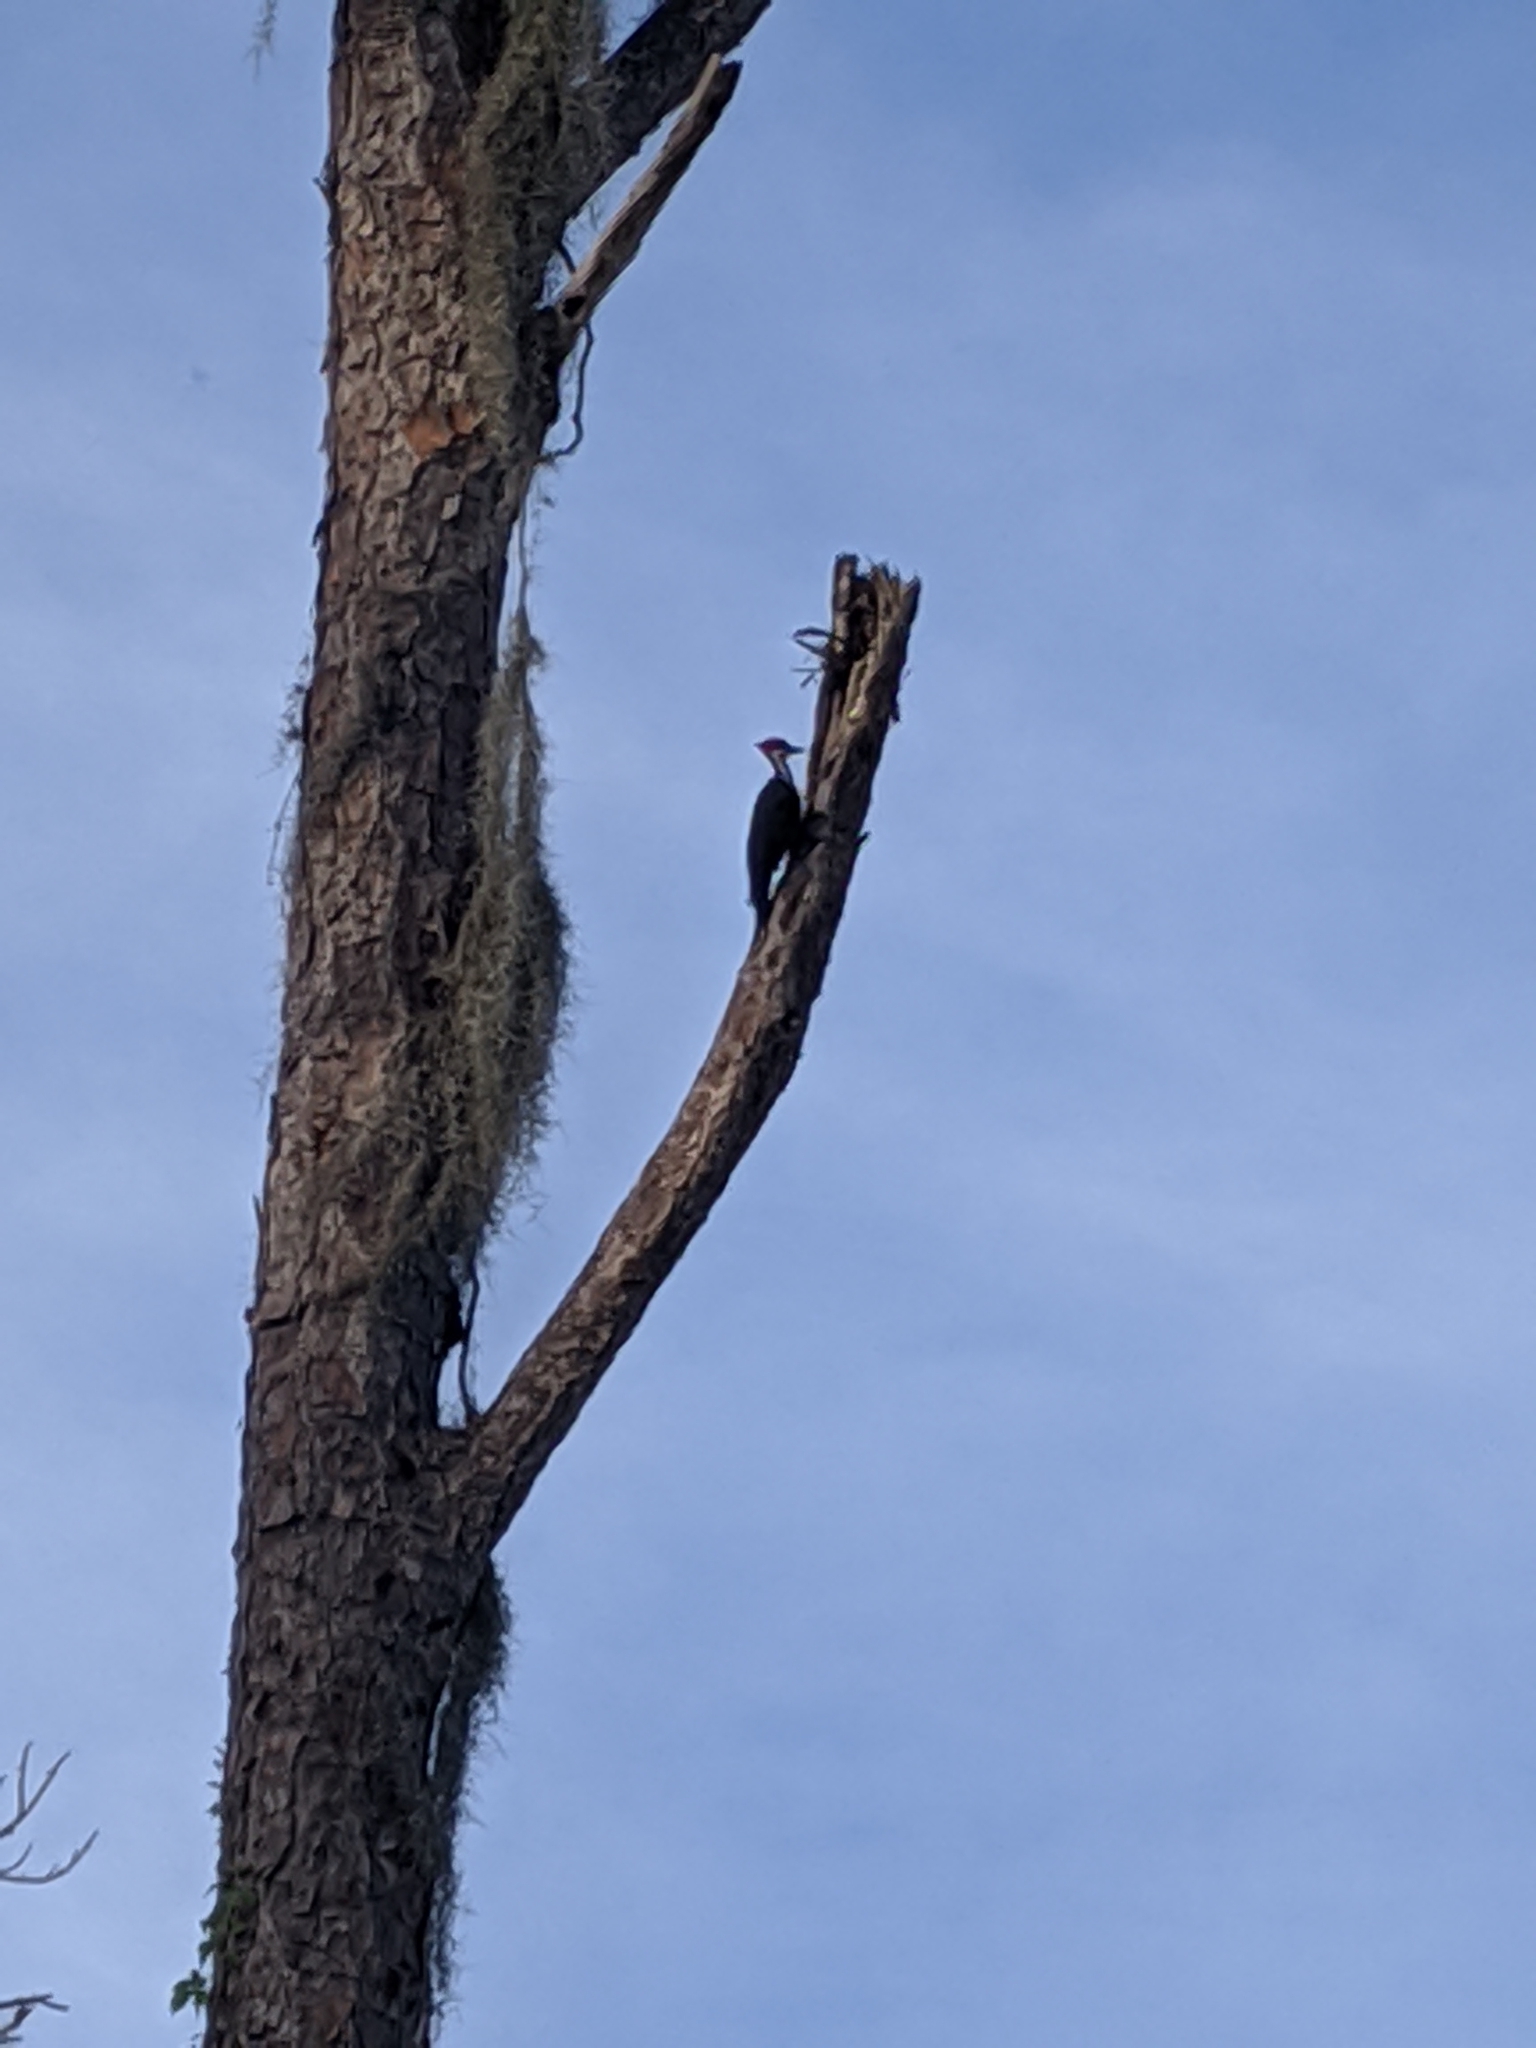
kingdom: Animalia
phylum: Chordata
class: Aves
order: Piciformes
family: Picidae
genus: Dryocopus
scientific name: Dryocopus pileatus
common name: Pileated woodpecker
